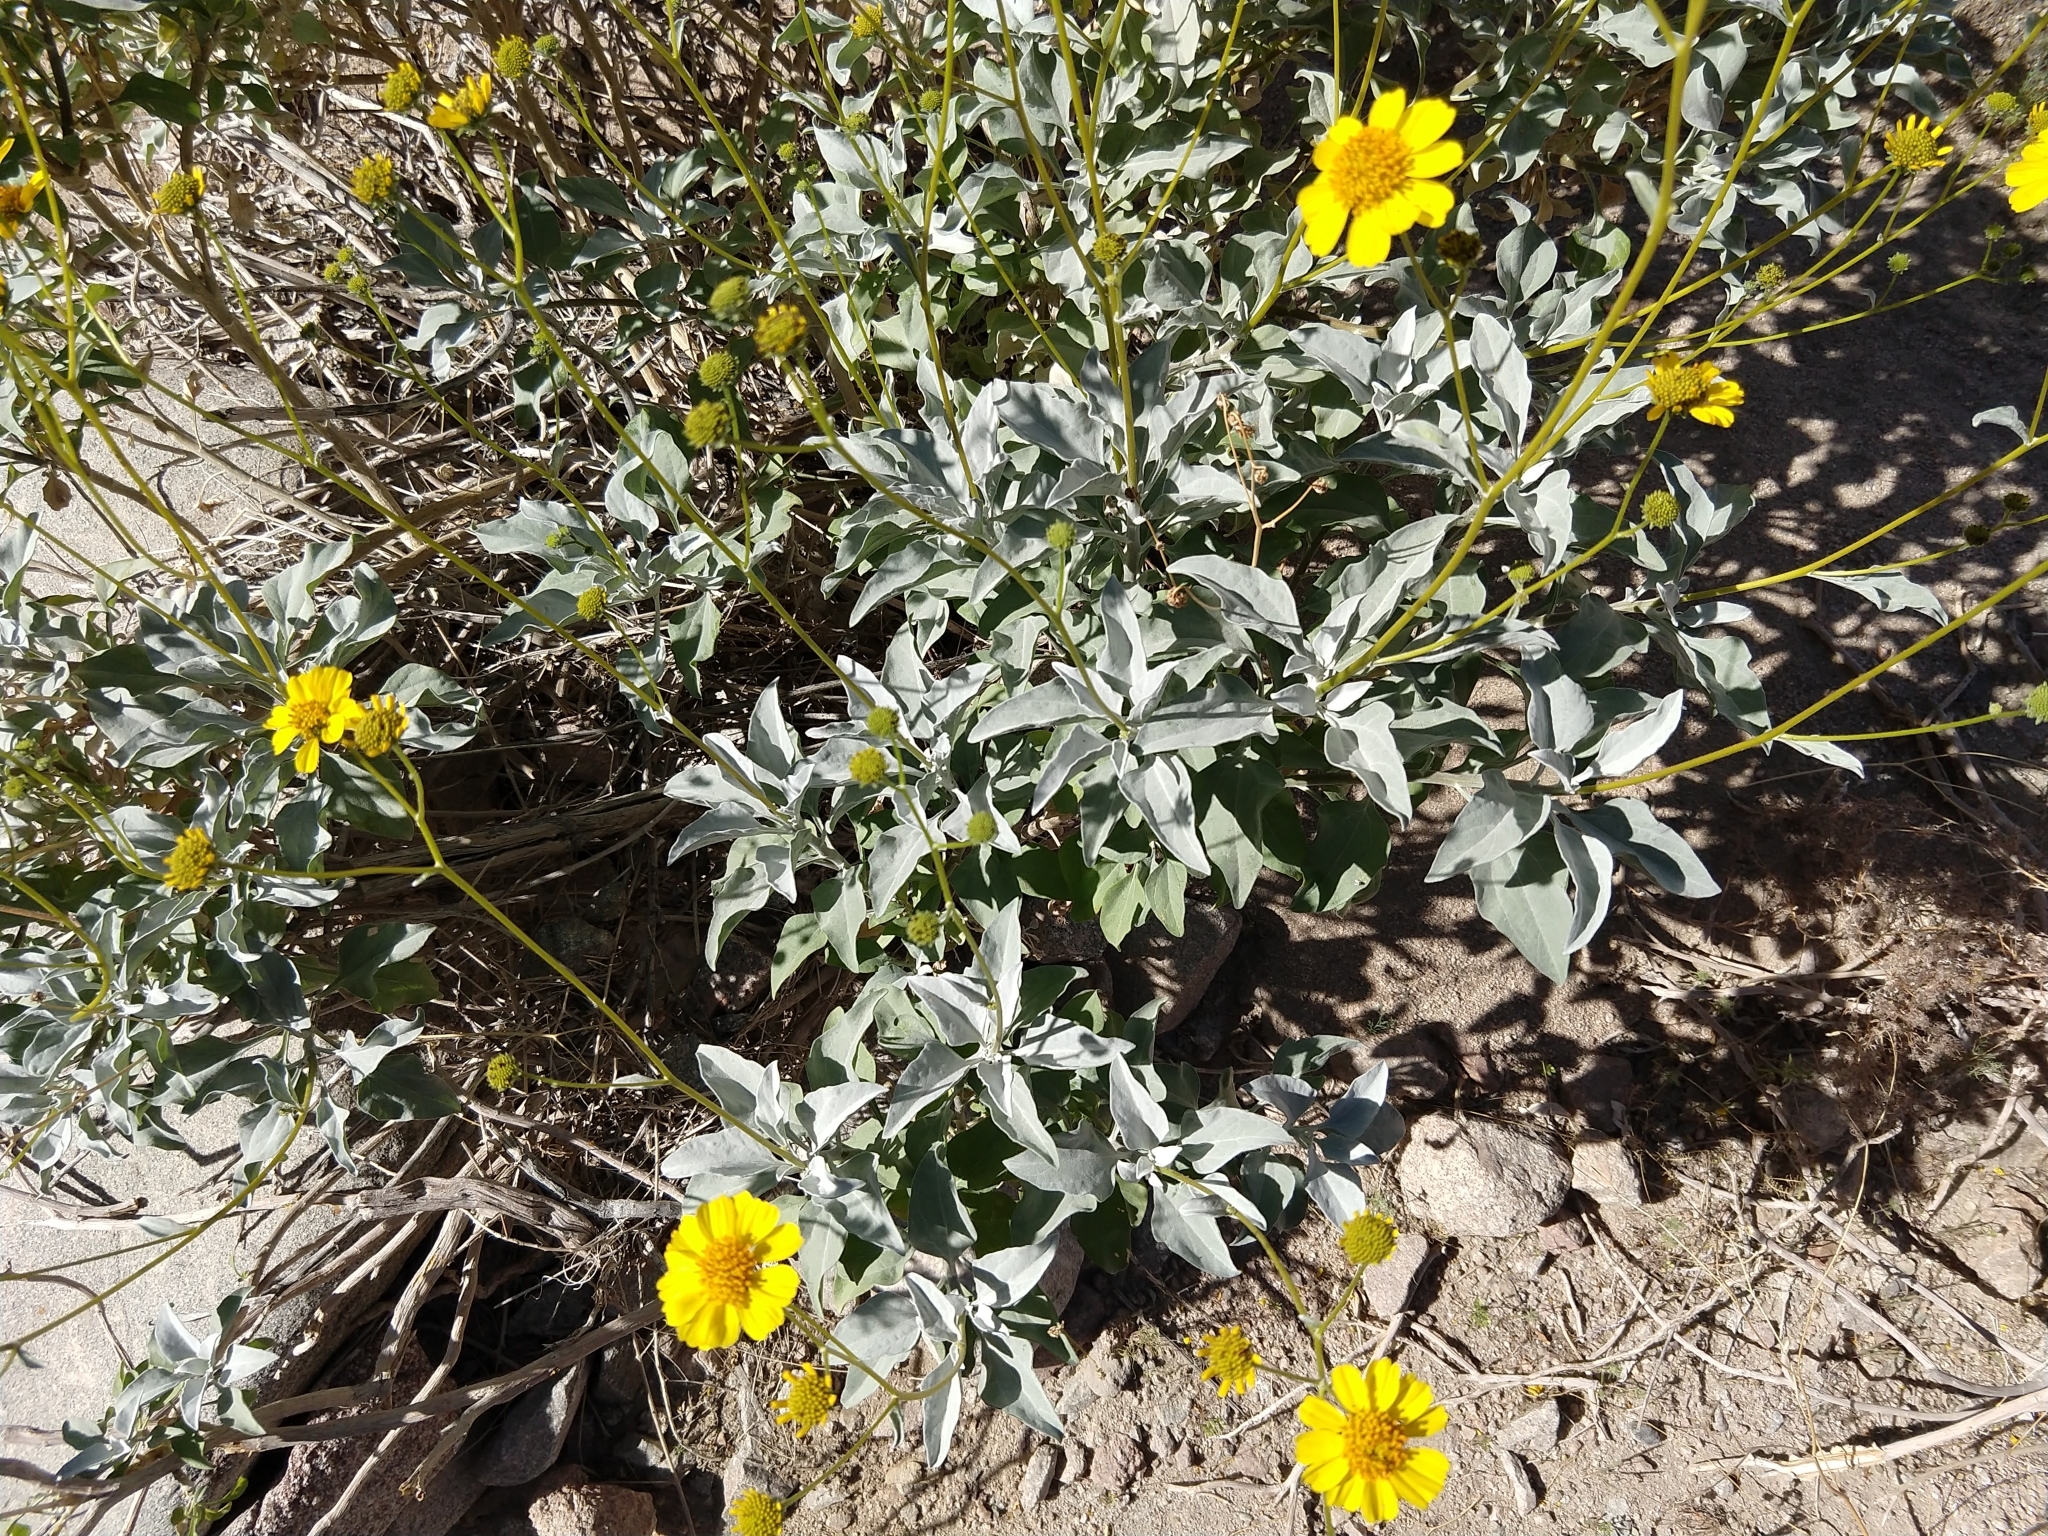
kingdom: Plantae
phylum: Tracheophyta
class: Magnoliopsida
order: Asterales
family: Asteraceae
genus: Encelia
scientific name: Encelia farinosa
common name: Brittlebush
